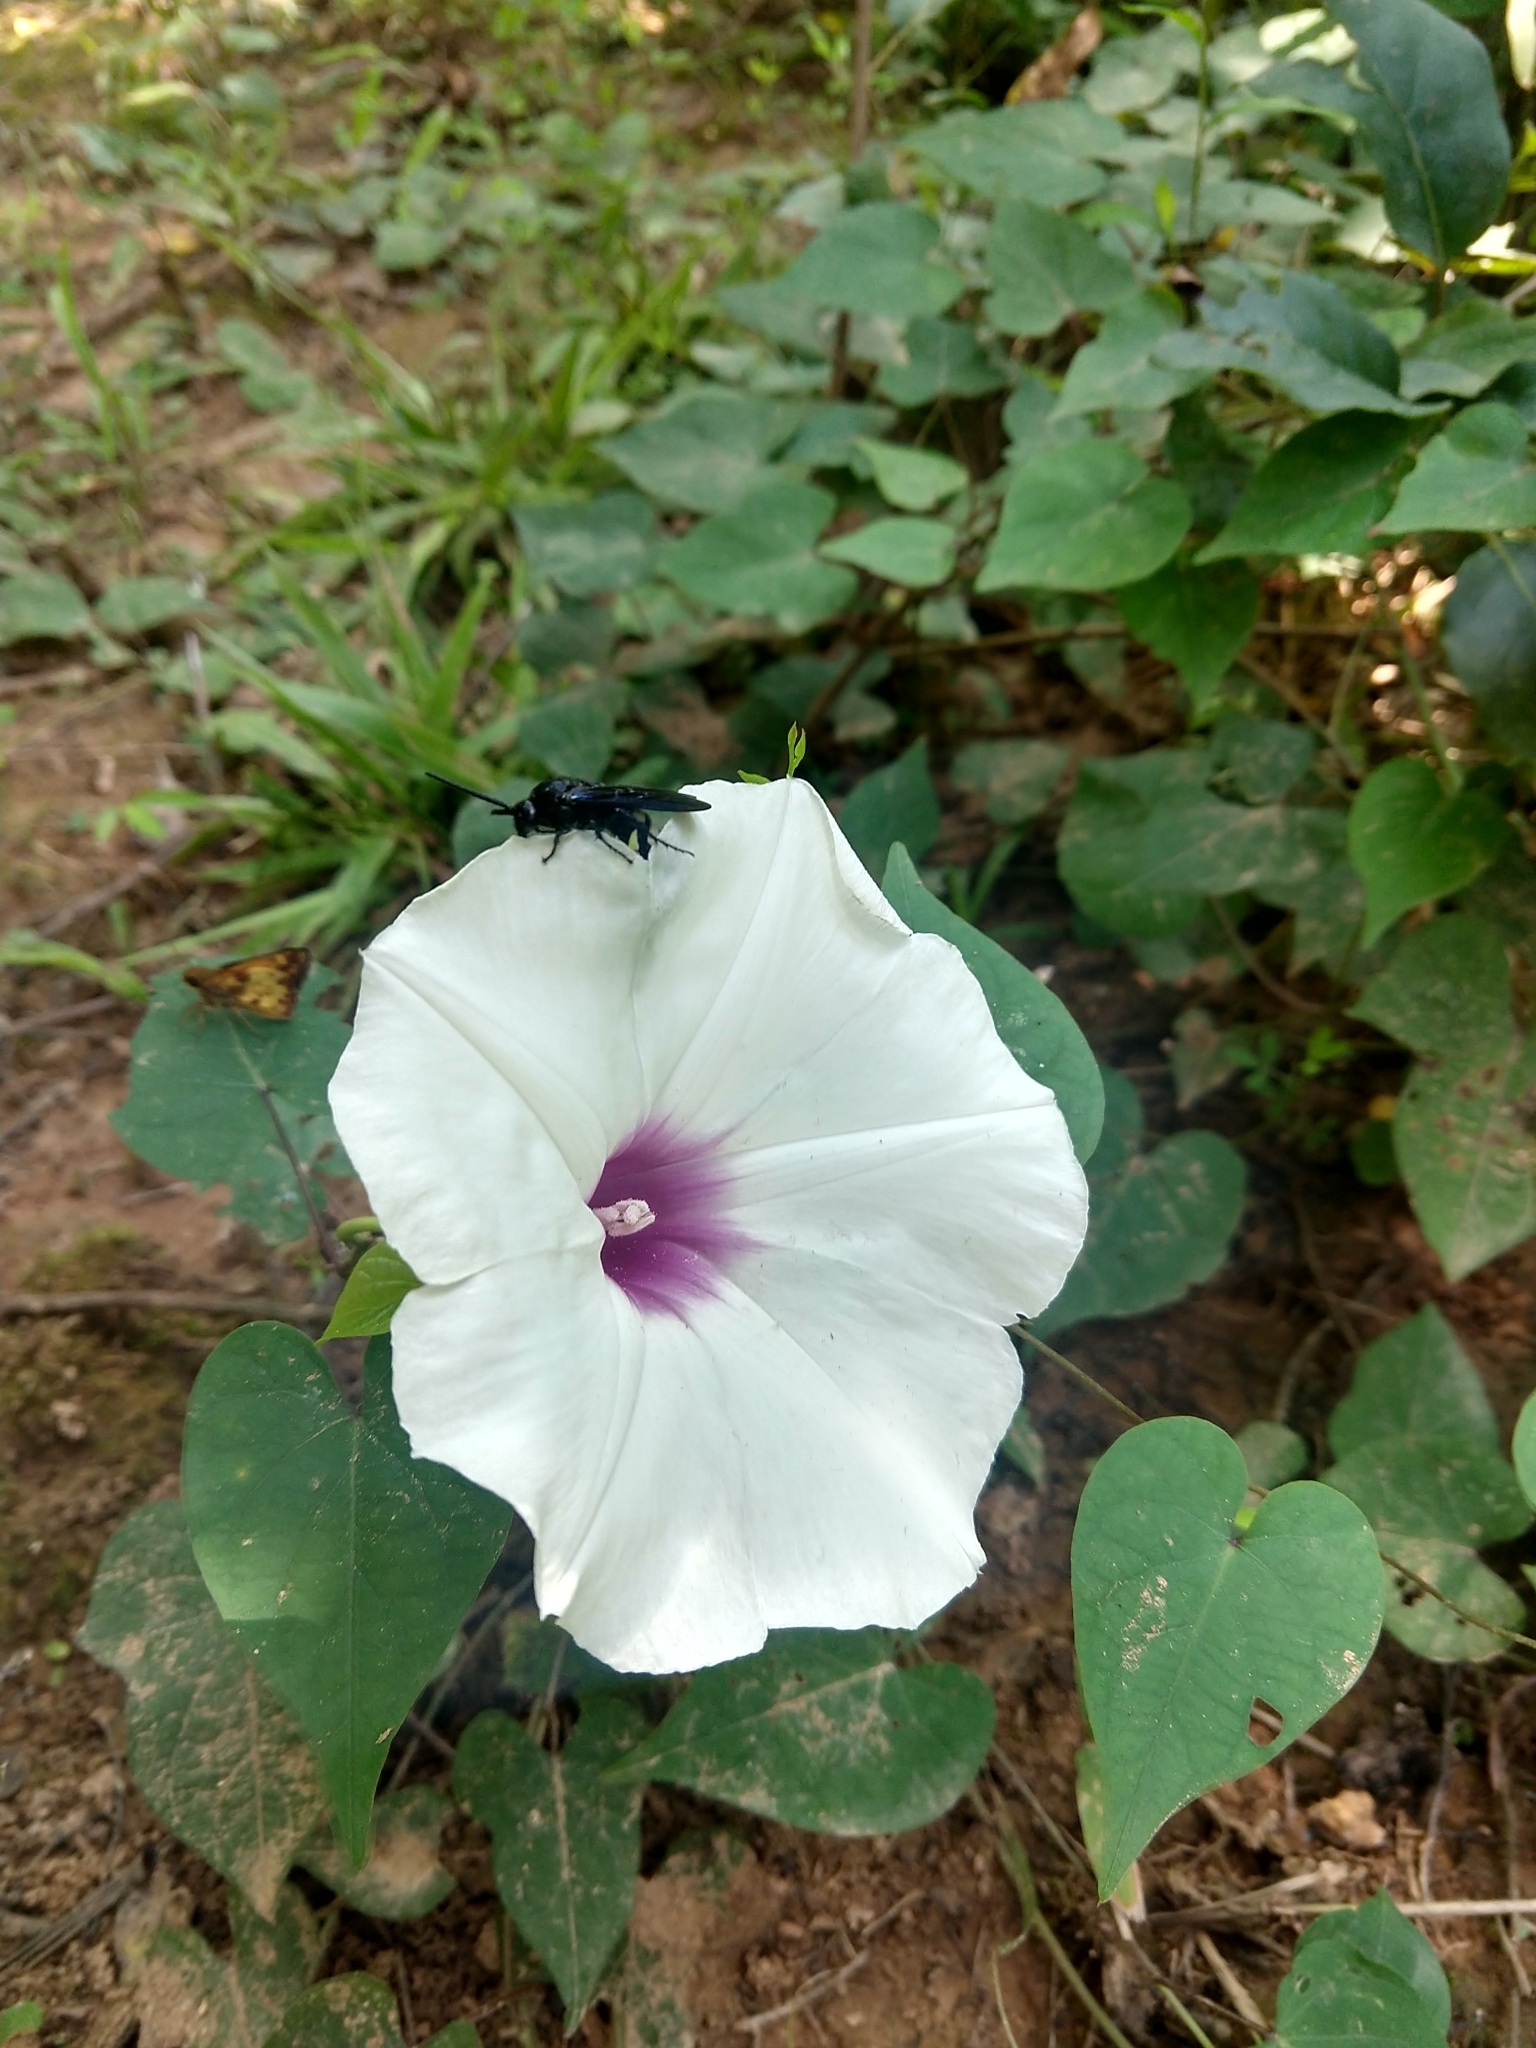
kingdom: Plantae
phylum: Tracheophyta
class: Magnoliopsida
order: Solanales
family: Convolvulaceae
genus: Ipomoea
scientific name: Ipomoea pandurata
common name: Man-of-the-earth
